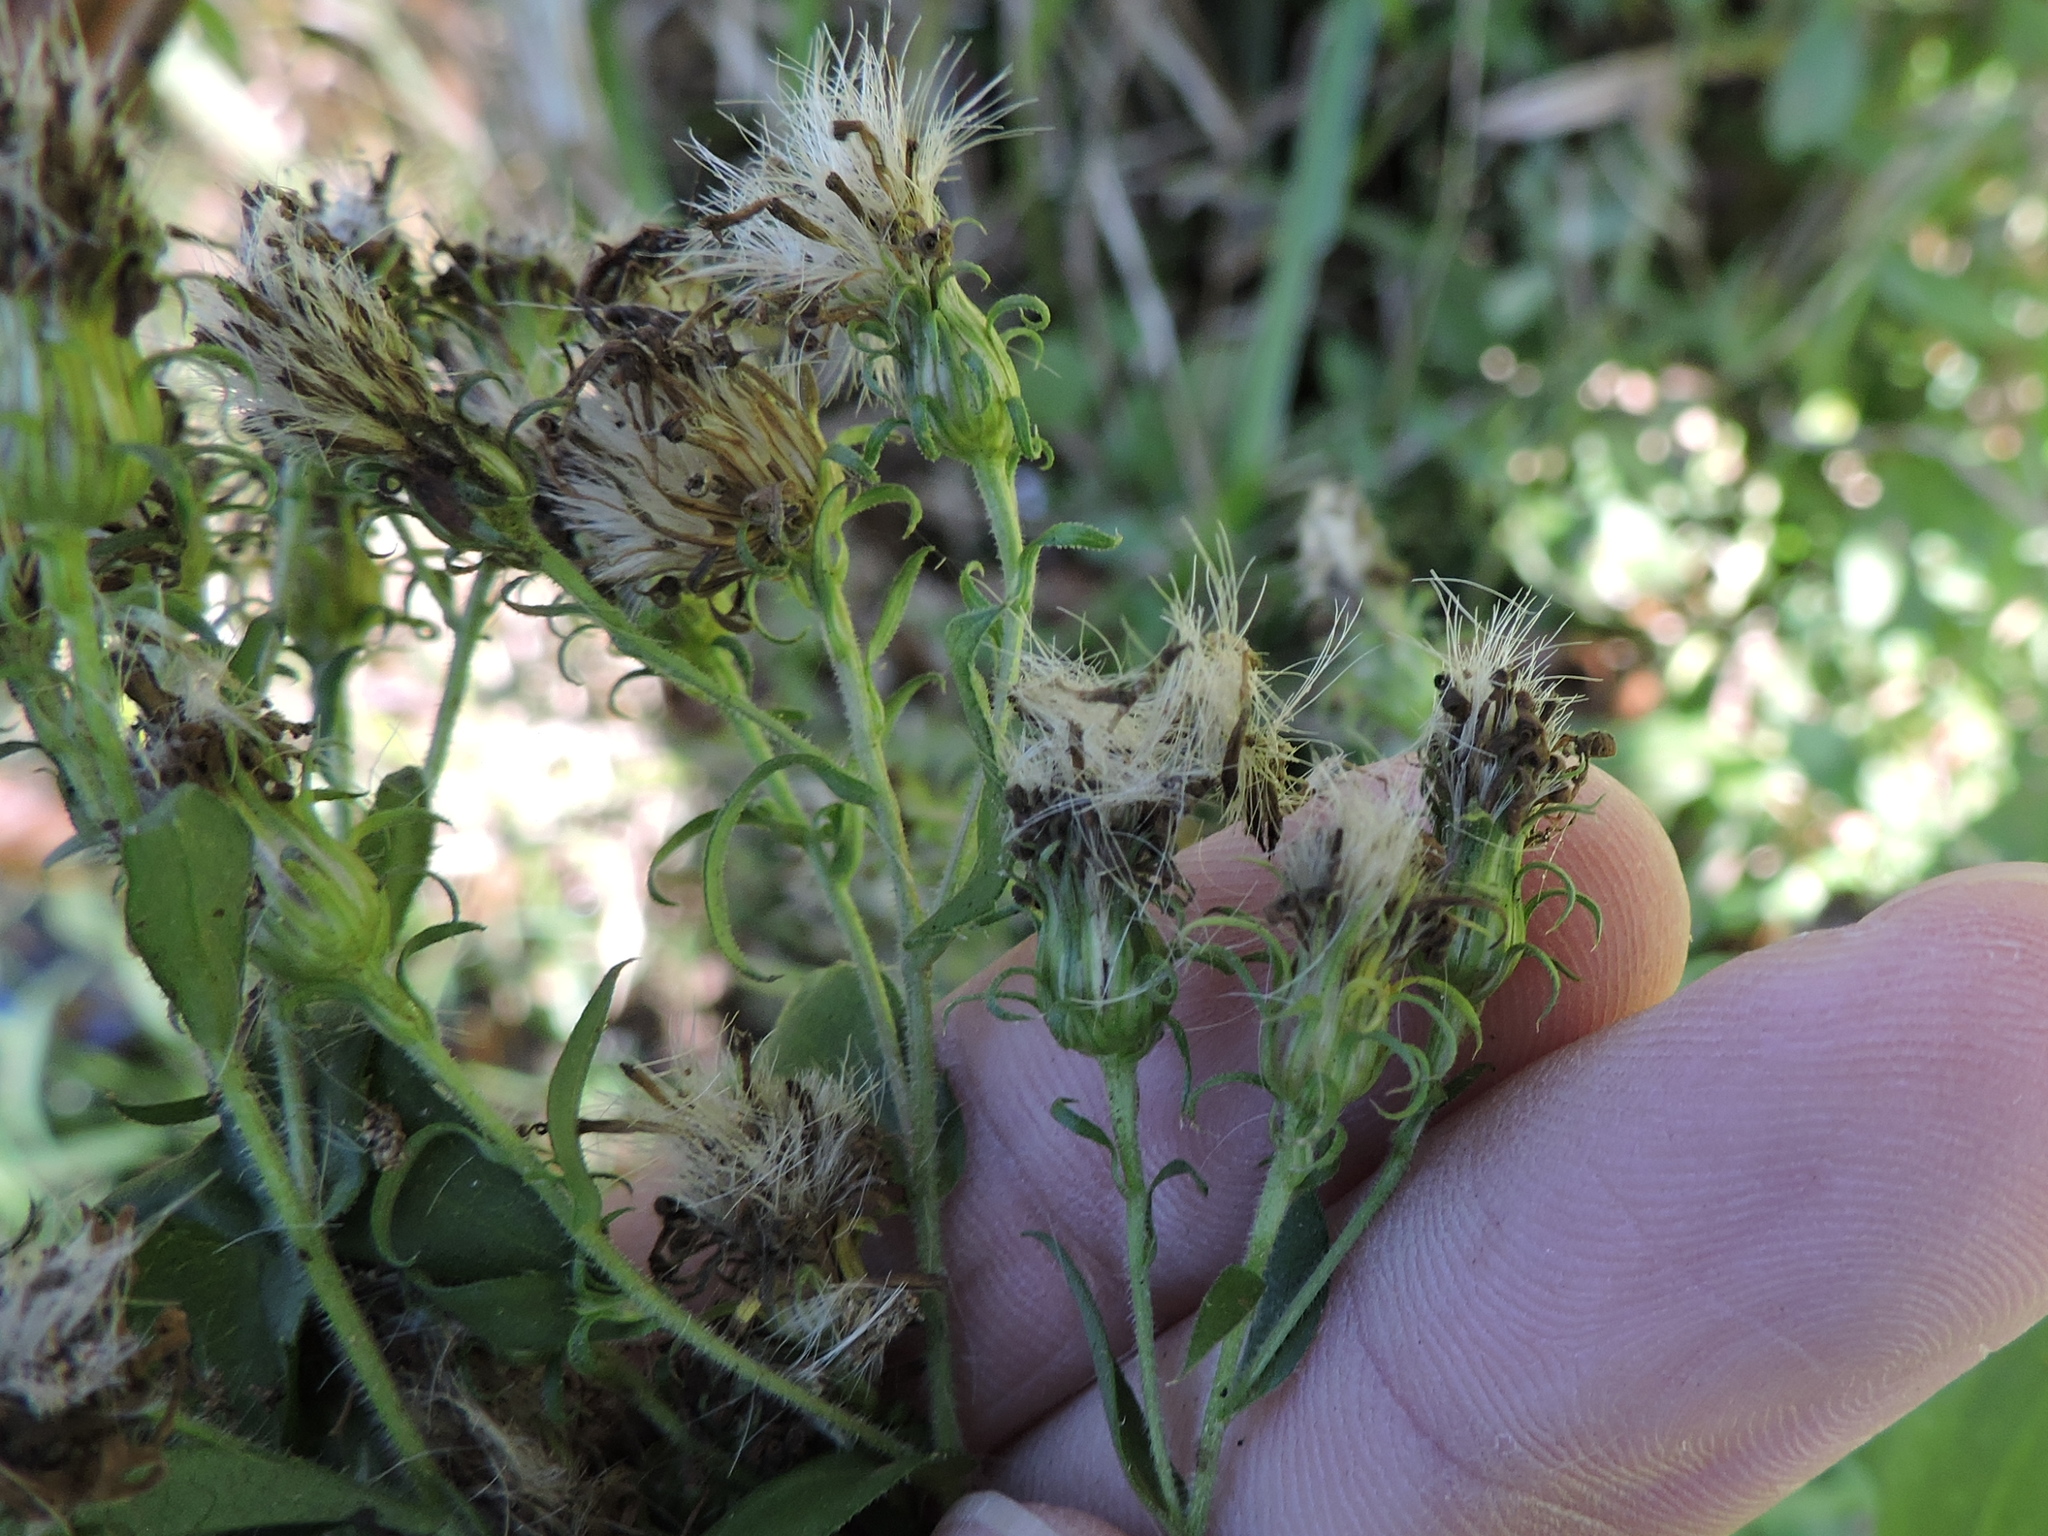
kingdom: Plantae
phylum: Tracheophyta
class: Magnoliopsida
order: Asterales
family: Asteraceae
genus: Symphyotrichum
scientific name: Symphyotrichum puniceum
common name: Bog aster
